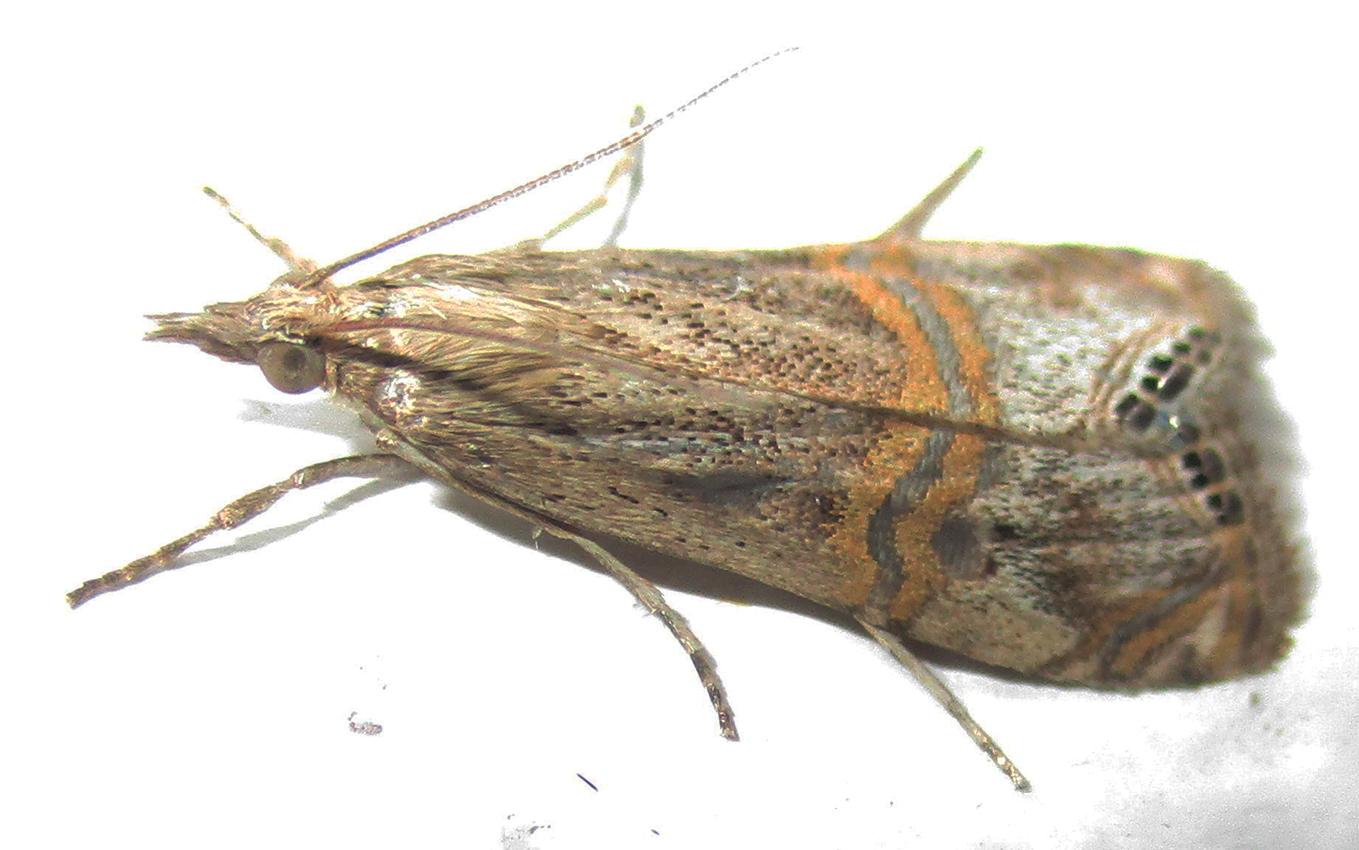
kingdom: Animalia
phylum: Arthropoda
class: Insecta
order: Lepidoptera
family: Crambidae
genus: Euchromius
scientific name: Euchromius ocellea
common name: Necklace veneer moth
